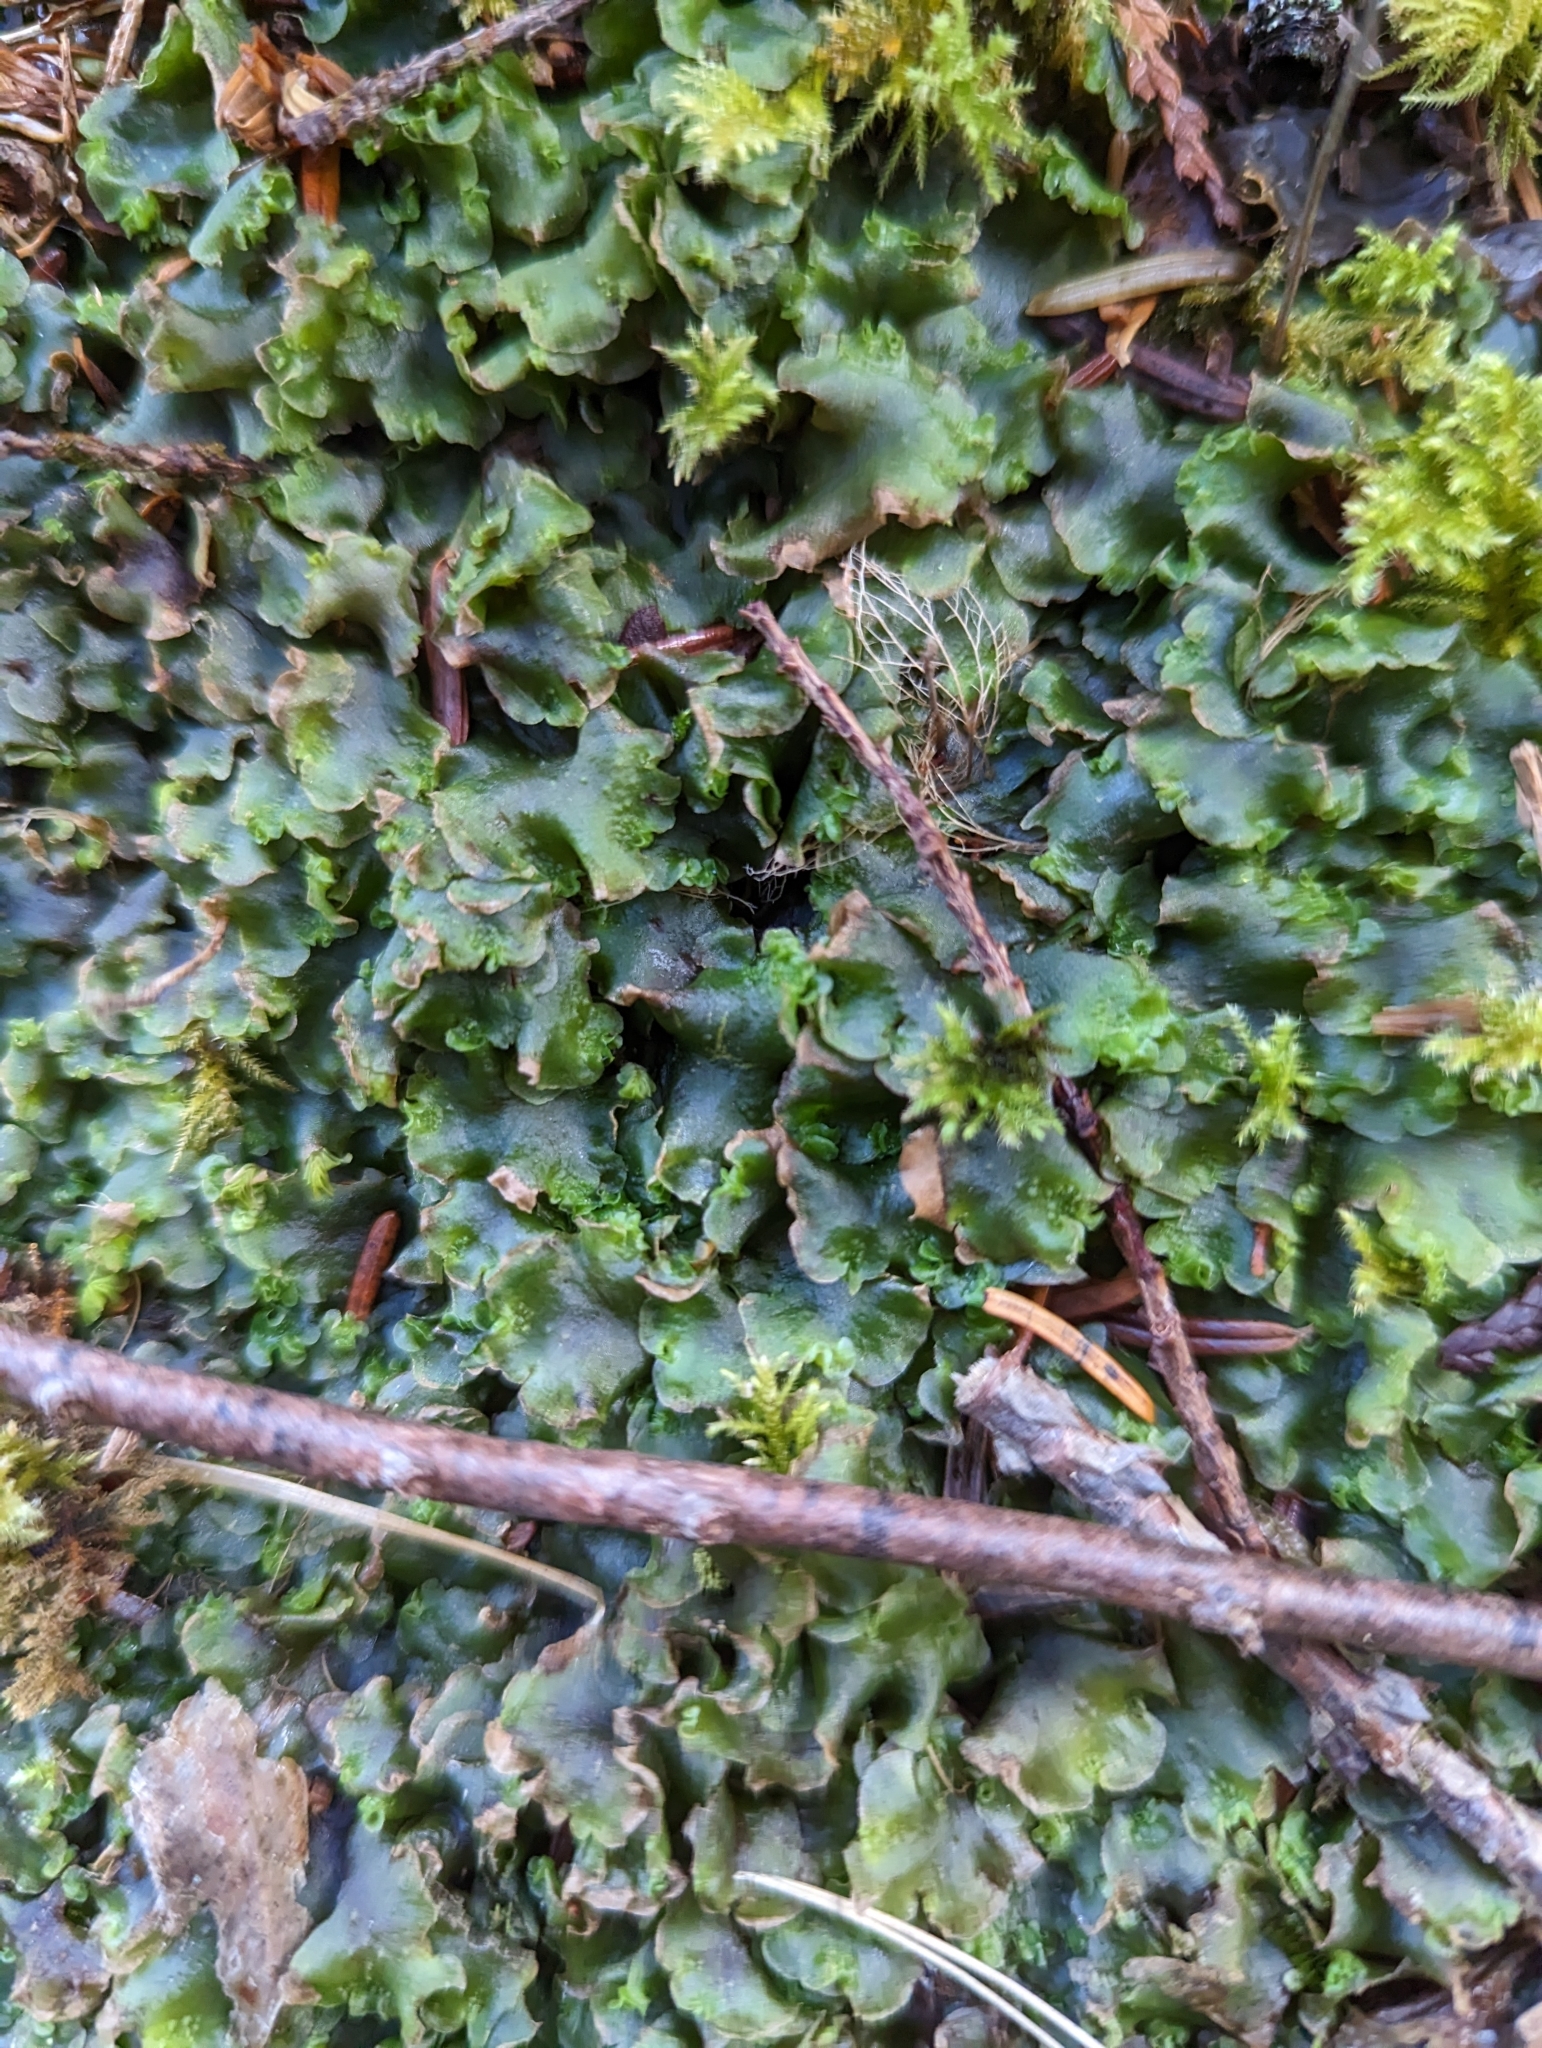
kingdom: Plantae
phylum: Marchantiophyta
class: Jungermanniopsida
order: Pelliales
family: Pelliaceae
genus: Pellia
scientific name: Pellia neesiana
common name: Nees  pellia
